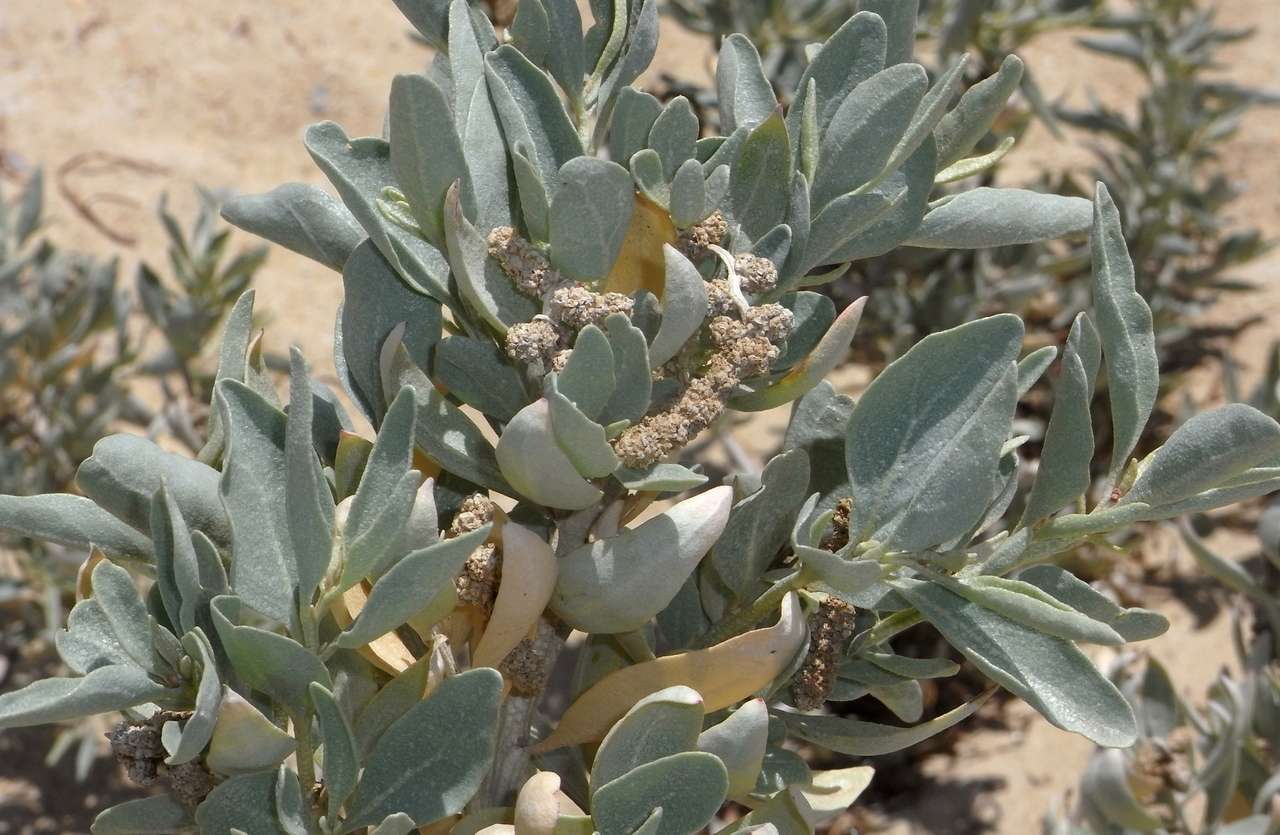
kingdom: Plantae
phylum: Tracheophyta
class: Magnoliopsida
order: Caryophyllales
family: Amaranthaceae
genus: Atriplex
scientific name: Atriplex cinerea
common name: Grey saltbush
